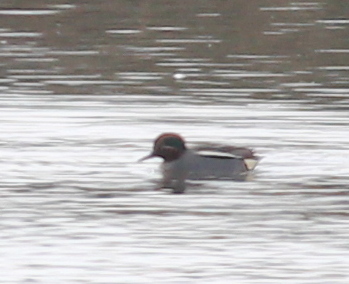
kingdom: Animalia
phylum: Chordata
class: Aves
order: Anseriformes
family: Anatidae
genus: Anas
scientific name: Anas crecca
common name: Eurasian teal
